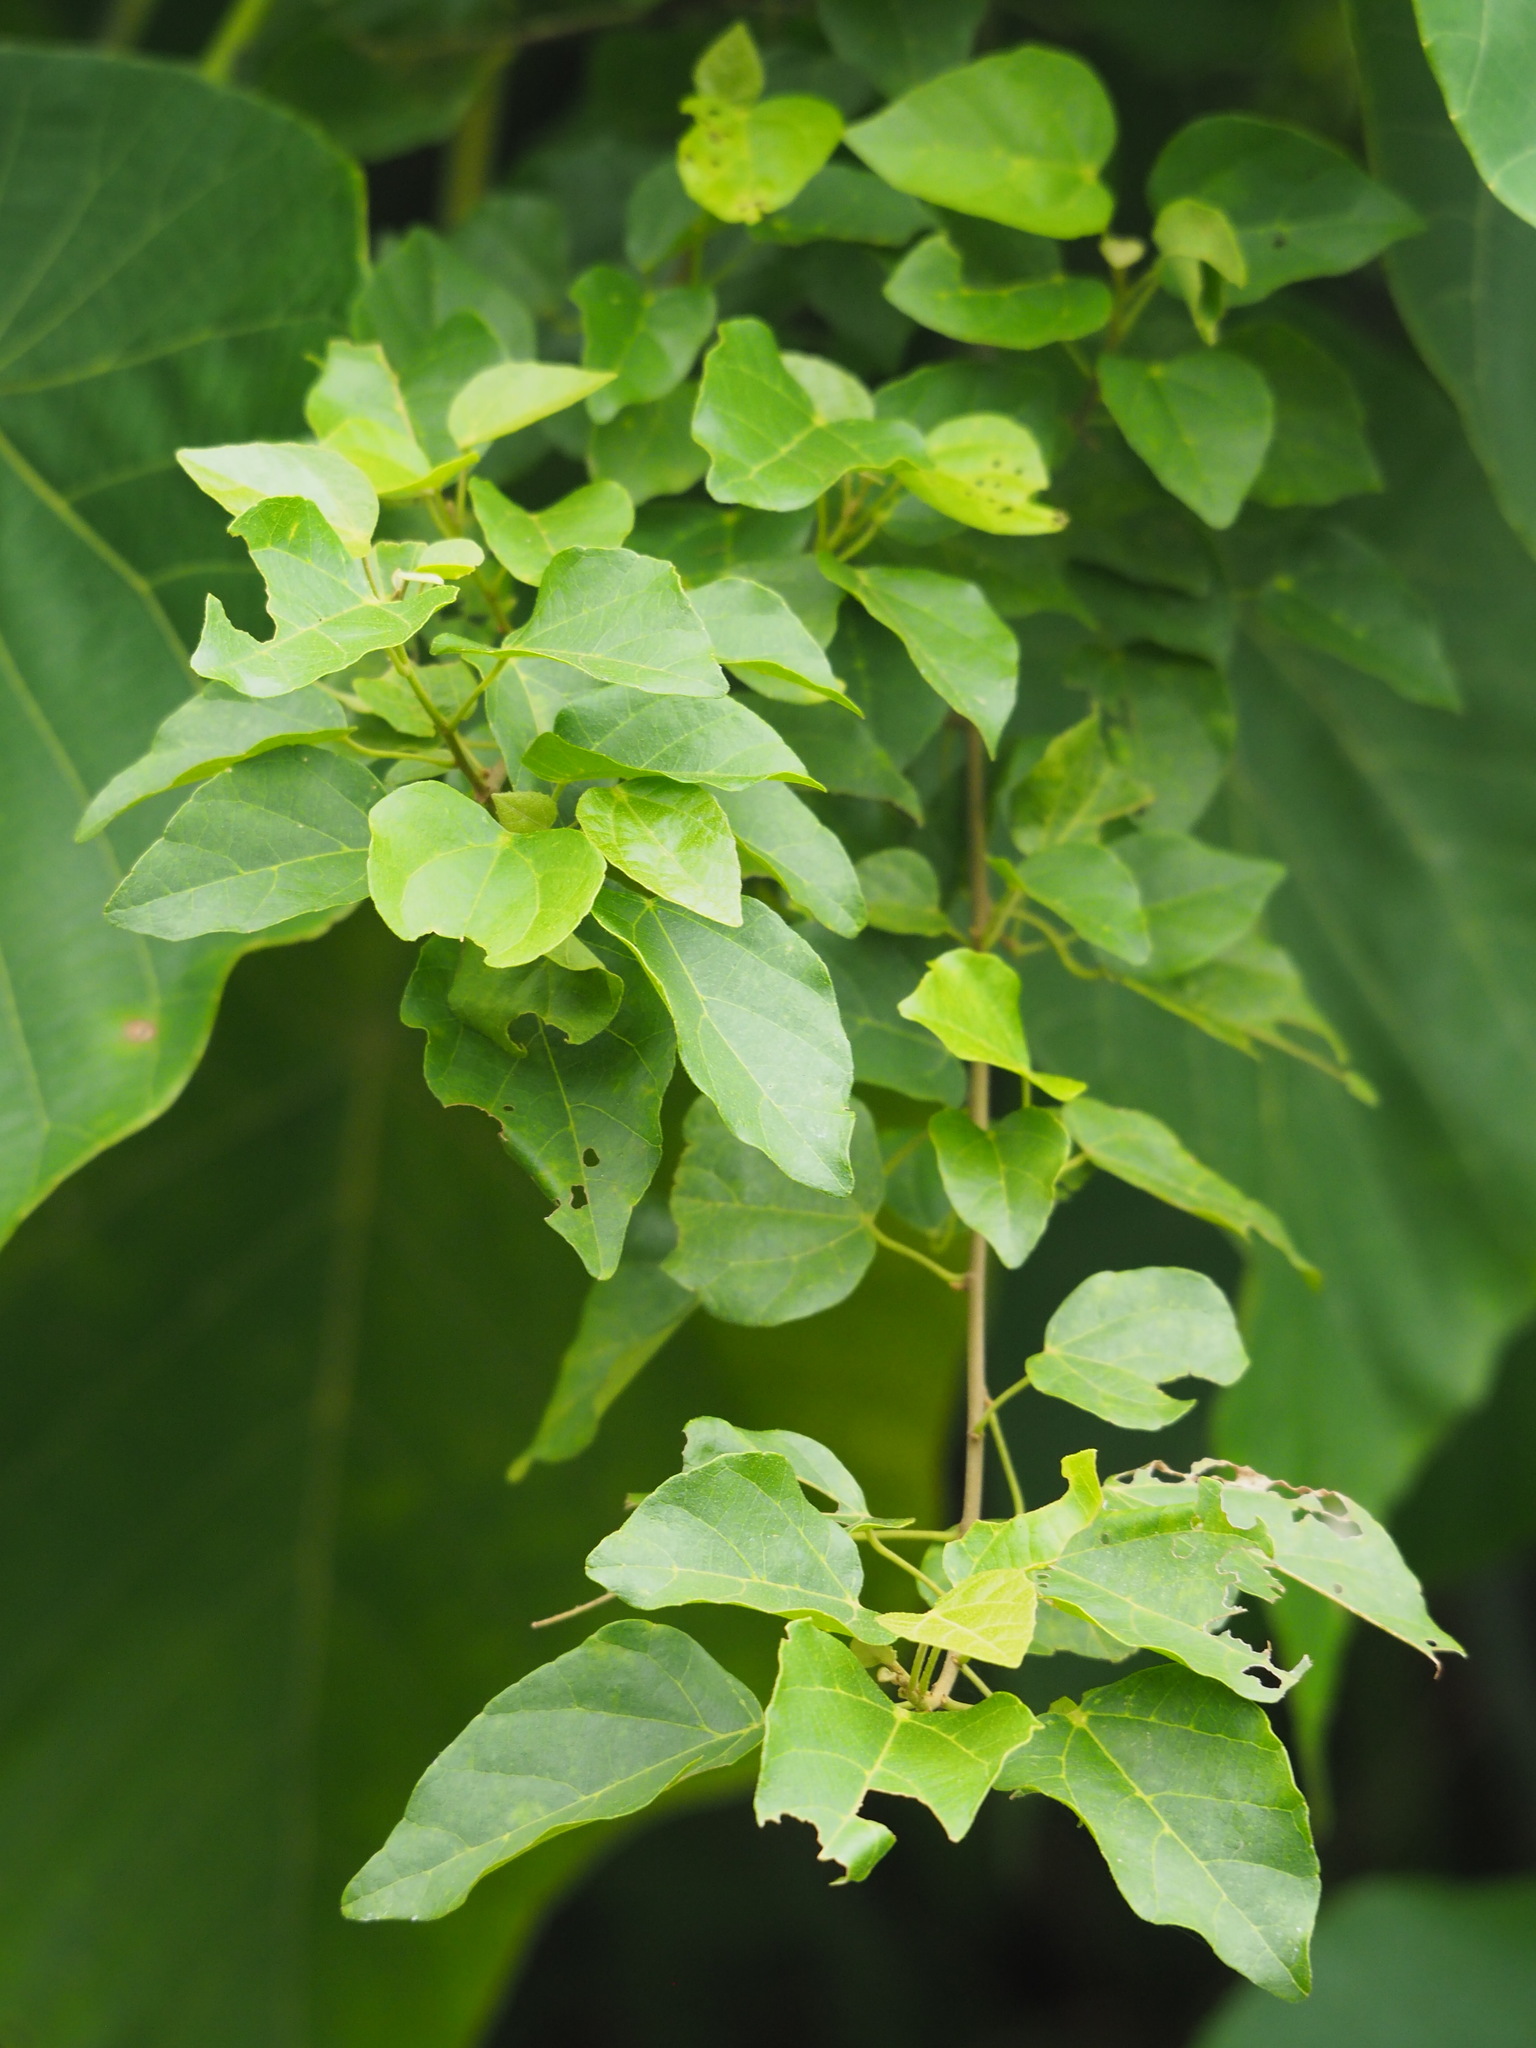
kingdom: Plantae
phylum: Tracheophyta
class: Magnoliopsida
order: Malpighiales
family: Euphorbiaceae
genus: Mallotus
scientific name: Mallotus repandus
